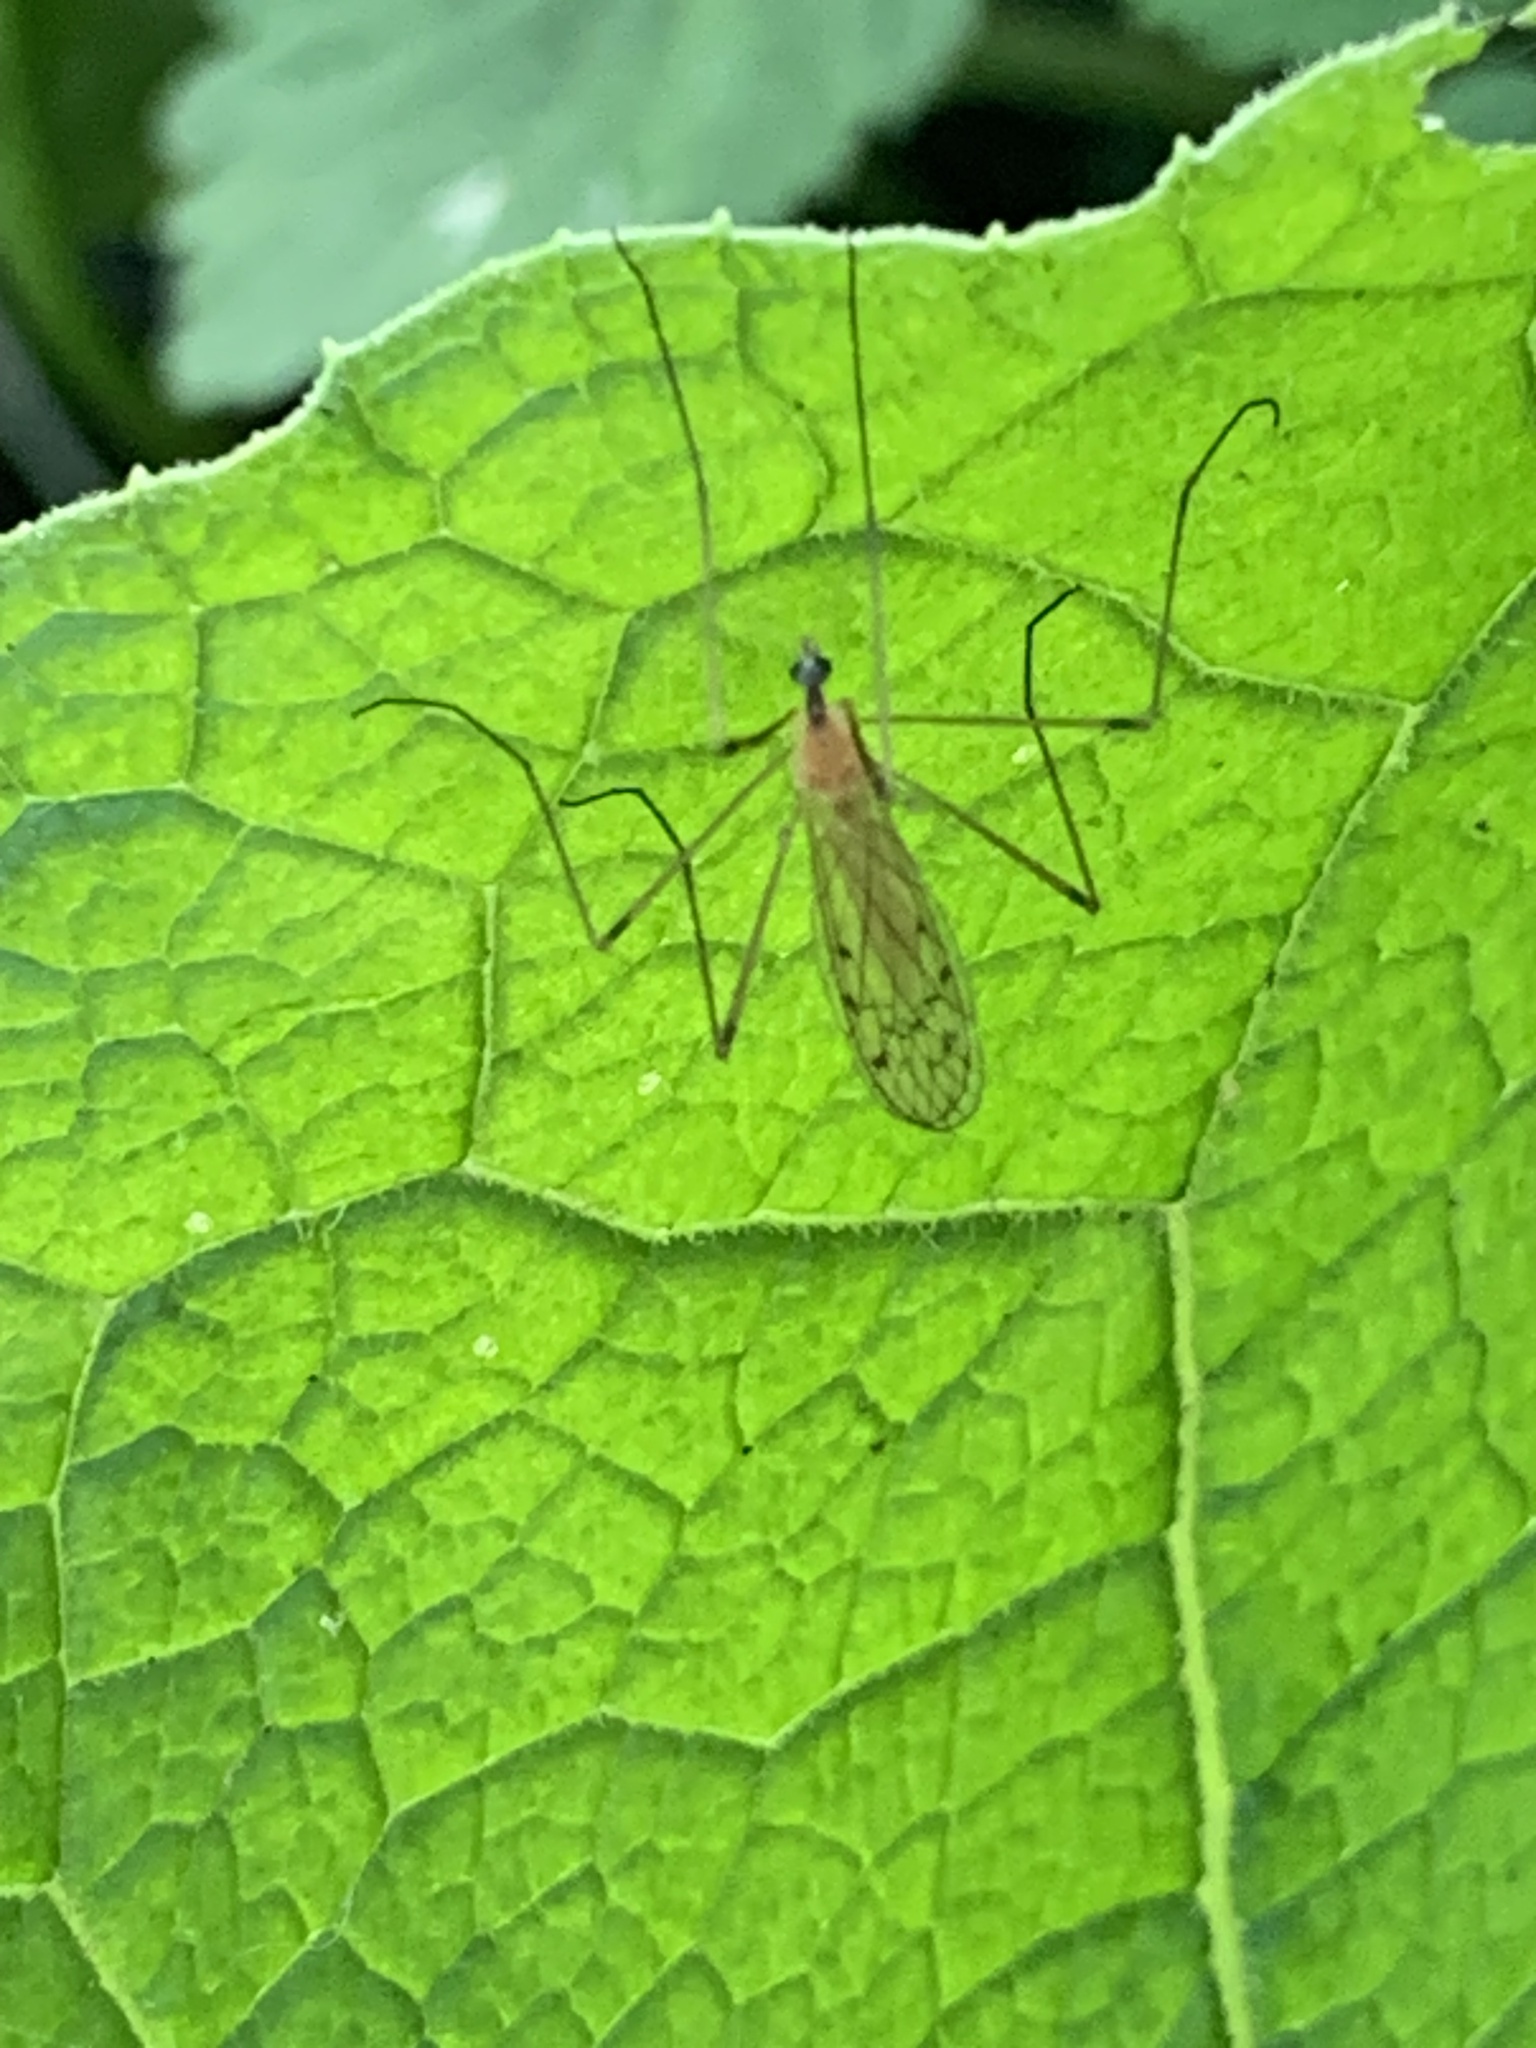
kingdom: Animalia
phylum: Arthropoda
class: Insecta
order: Diptera
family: Limoniidae
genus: Limonia
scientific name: Limonia phragmitidis
